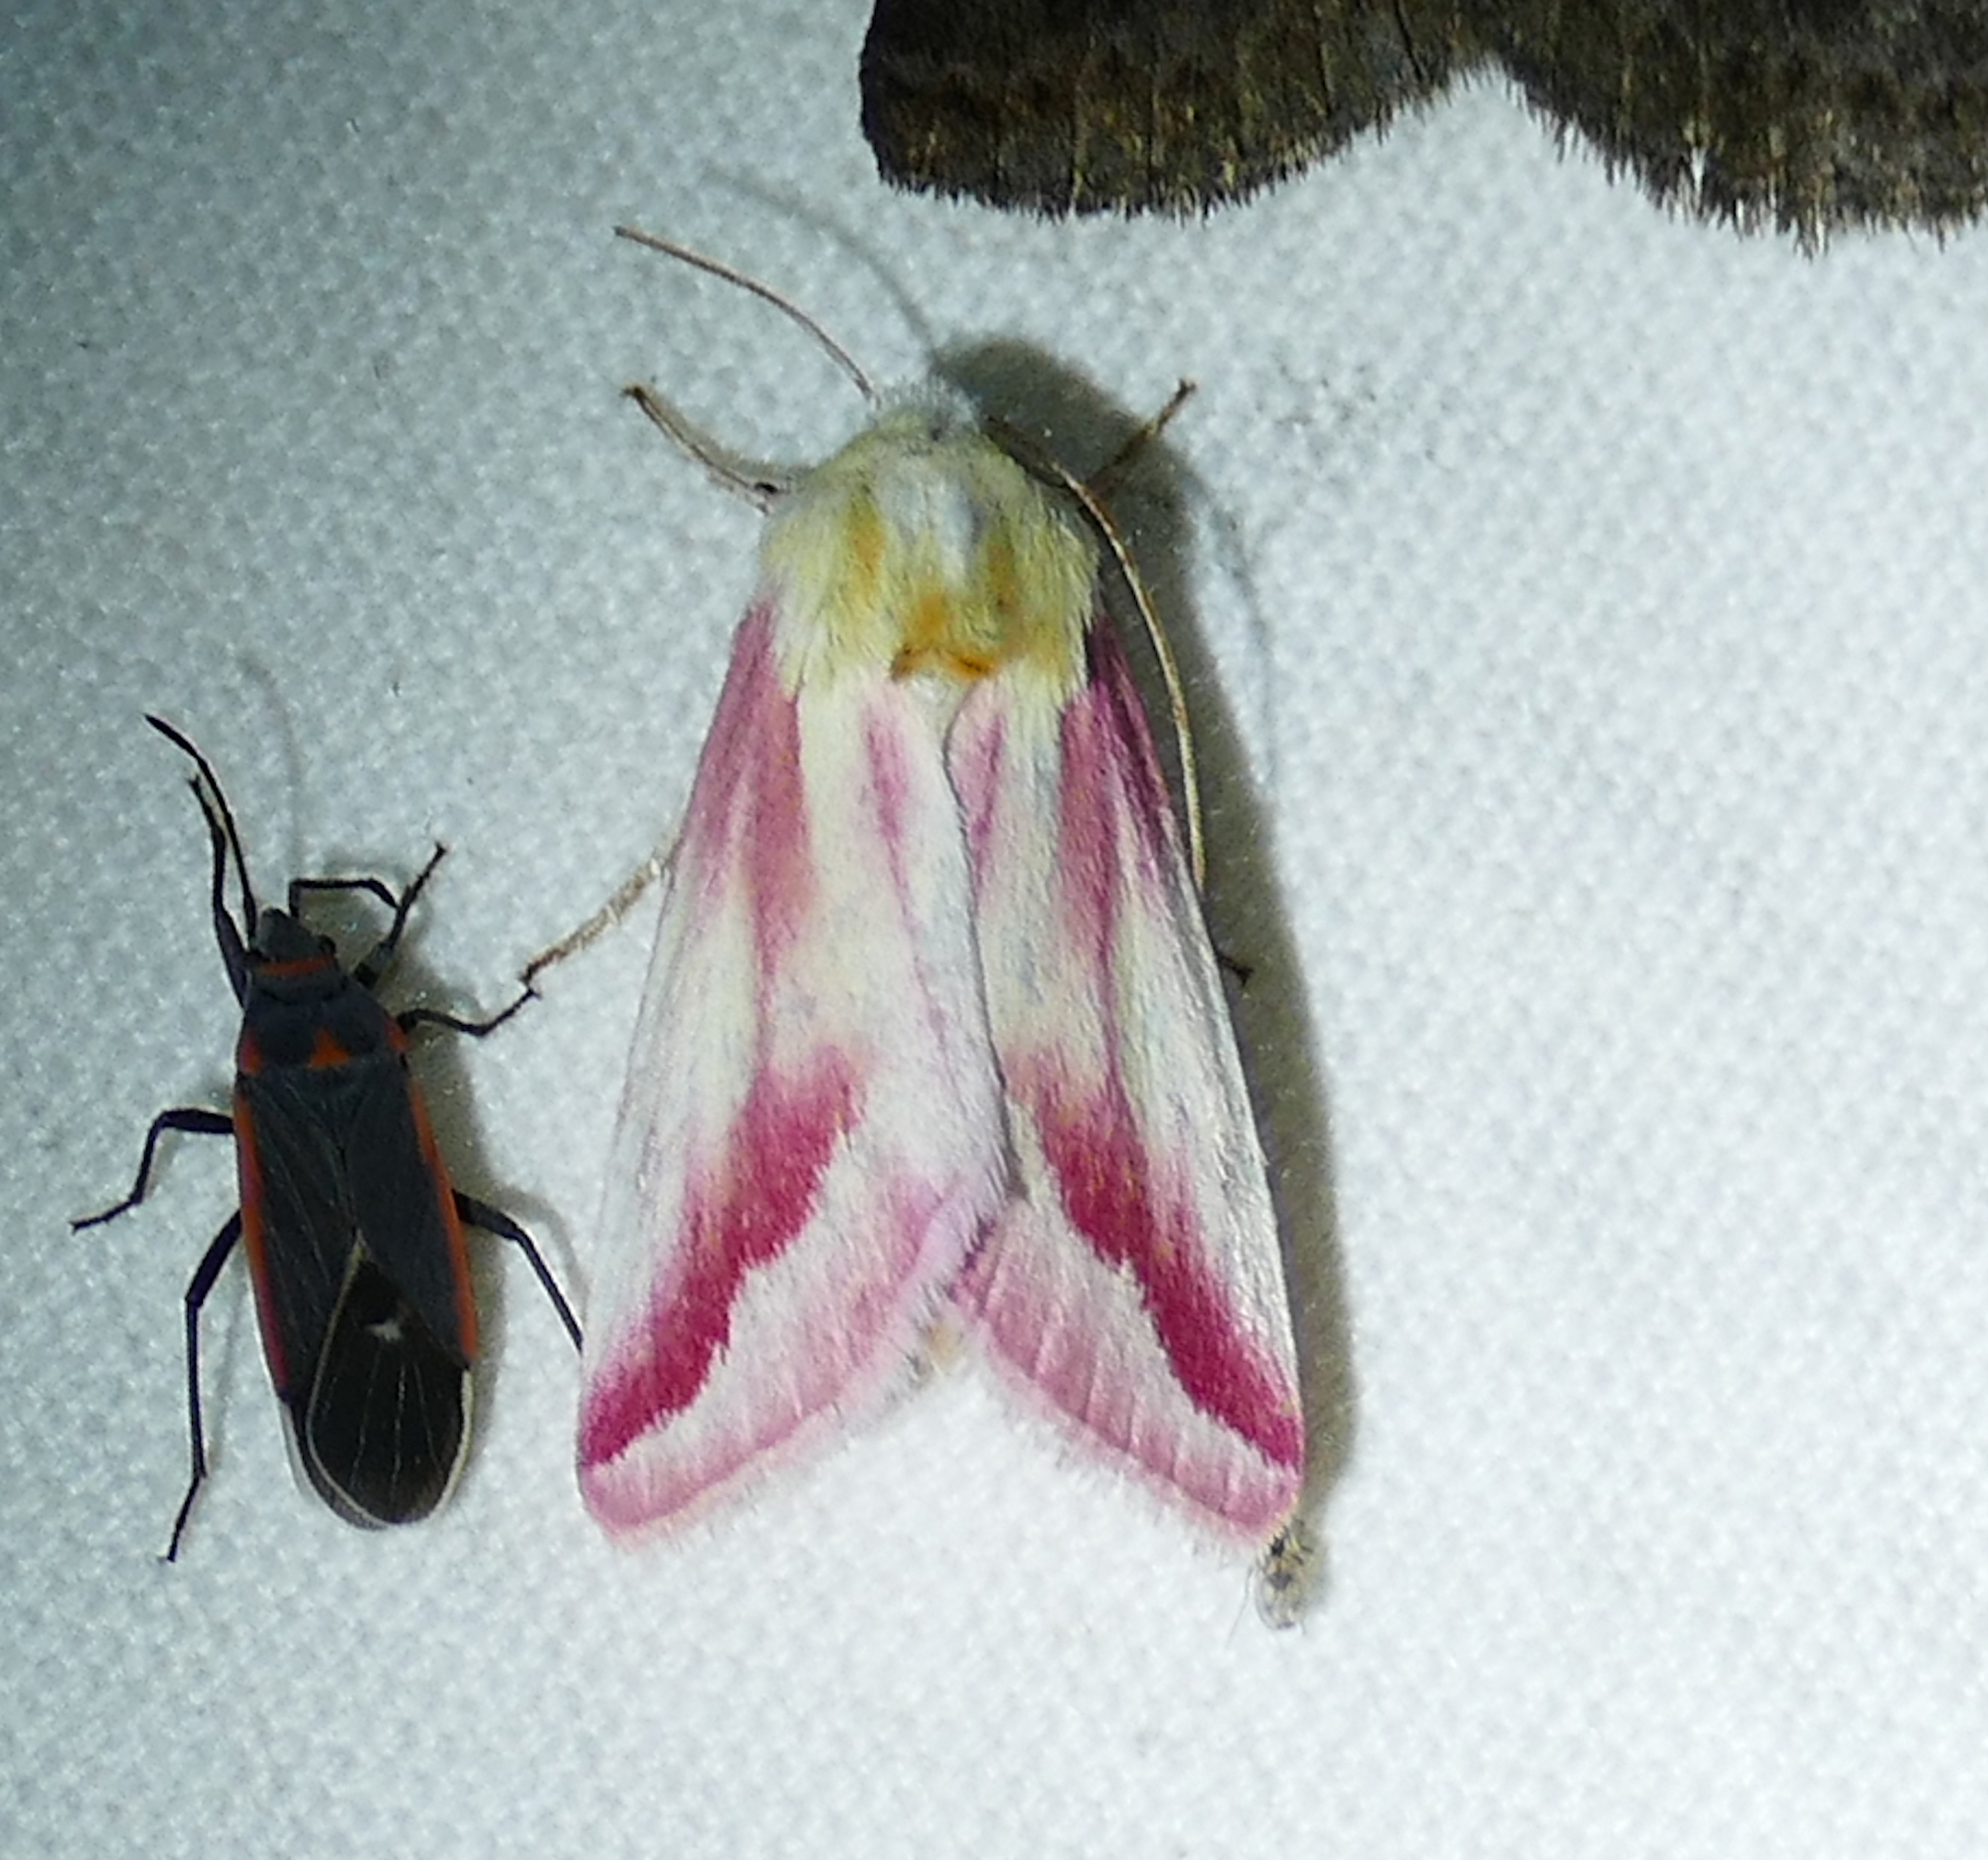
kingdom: Animalia
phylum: Arthropoda
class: Insecta
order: Lepidoptera
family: Noctuidae
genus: Schinia
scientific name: Schinia gaurae
